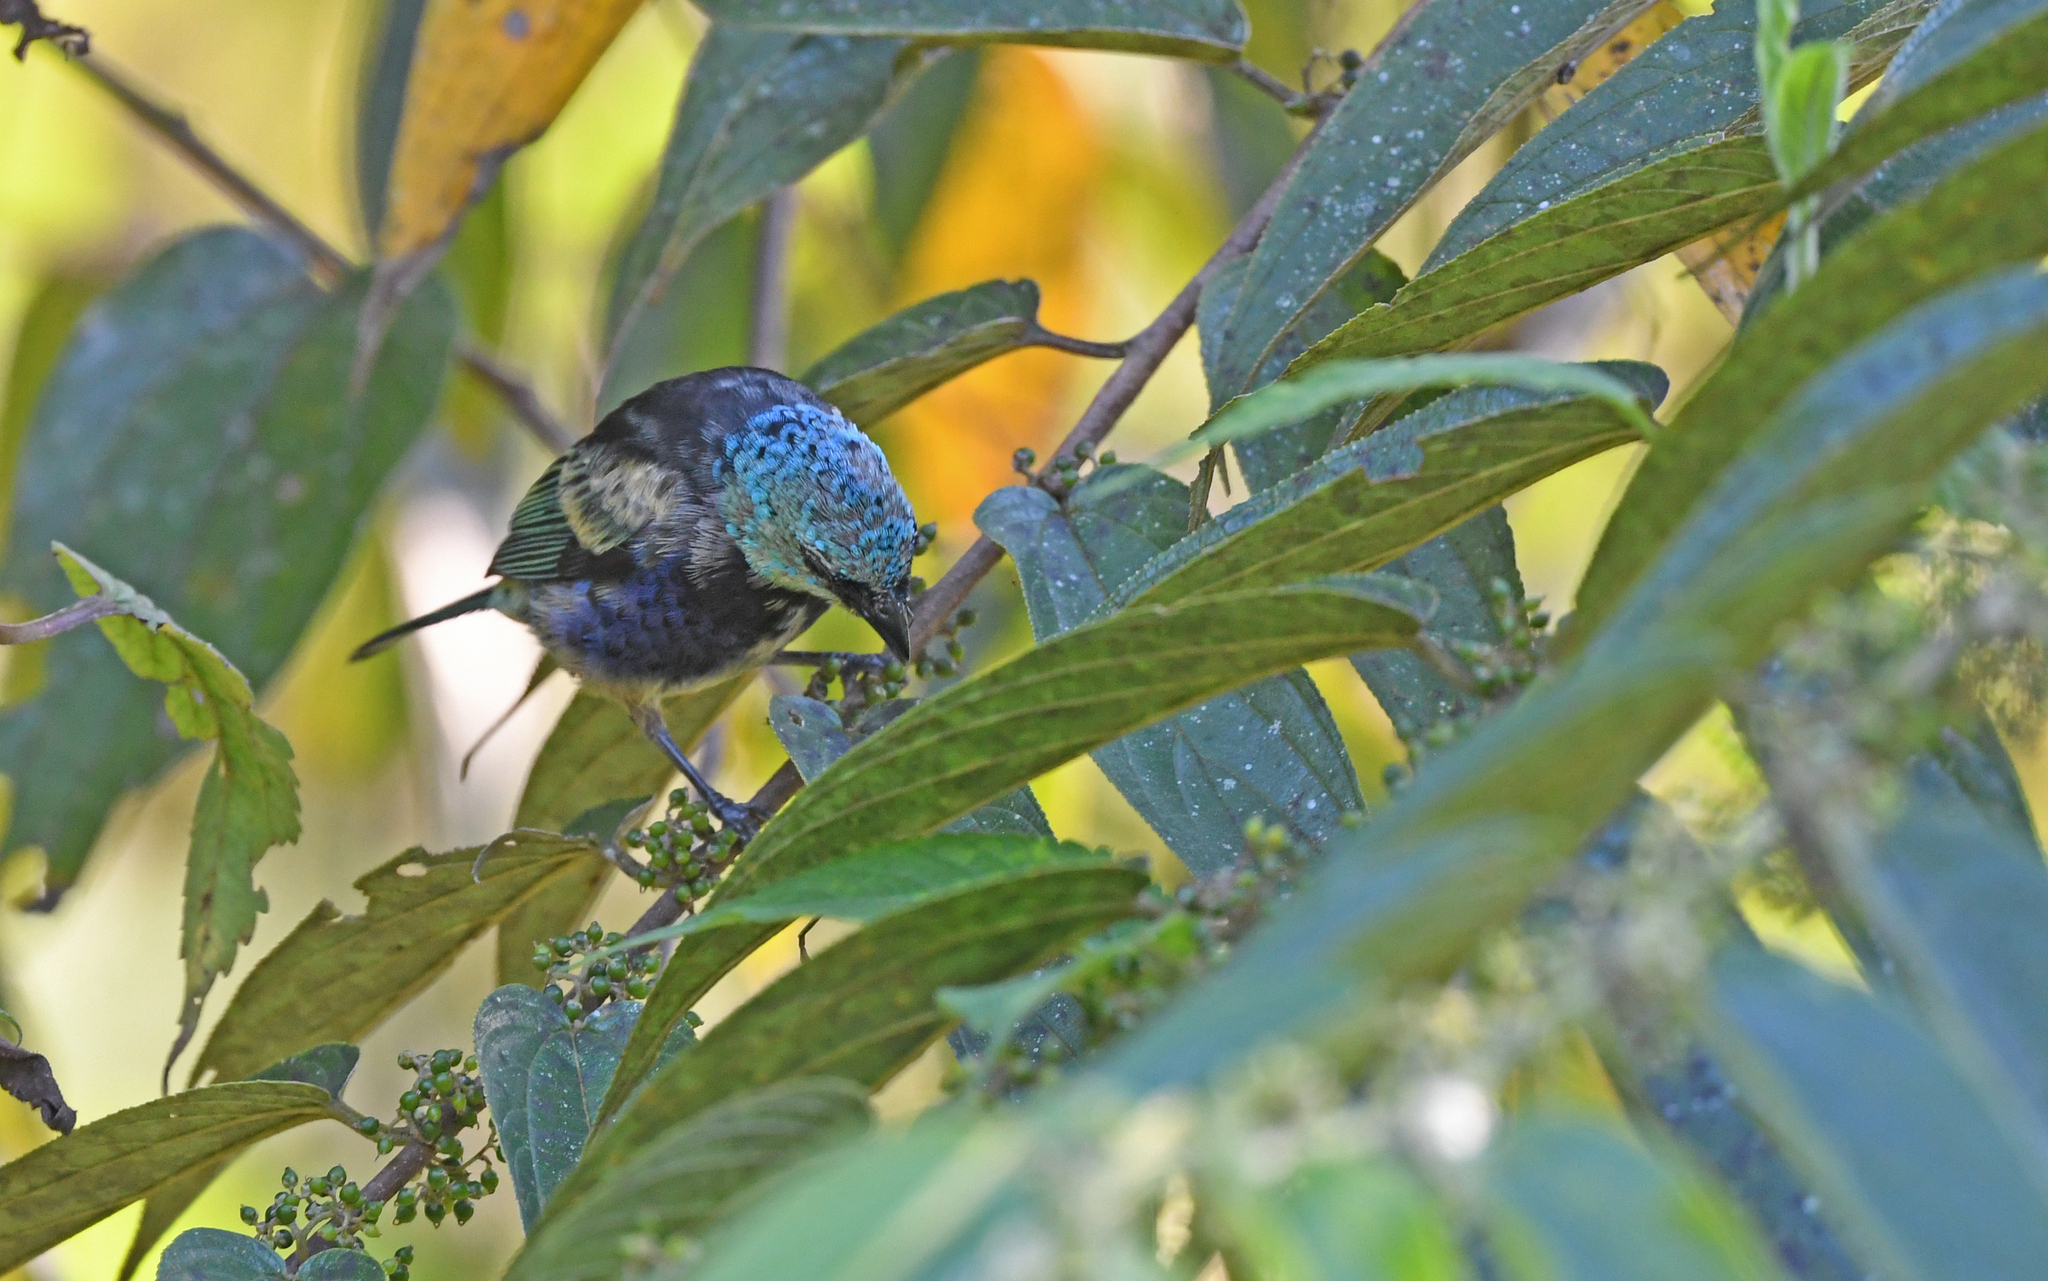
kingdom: Animalia
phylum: Chordata
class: Aves
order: Passeriformes
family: Thraupidae
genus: Stilpnia
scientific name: Stilpnia cyanicollis
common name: Blue-necked tanager
